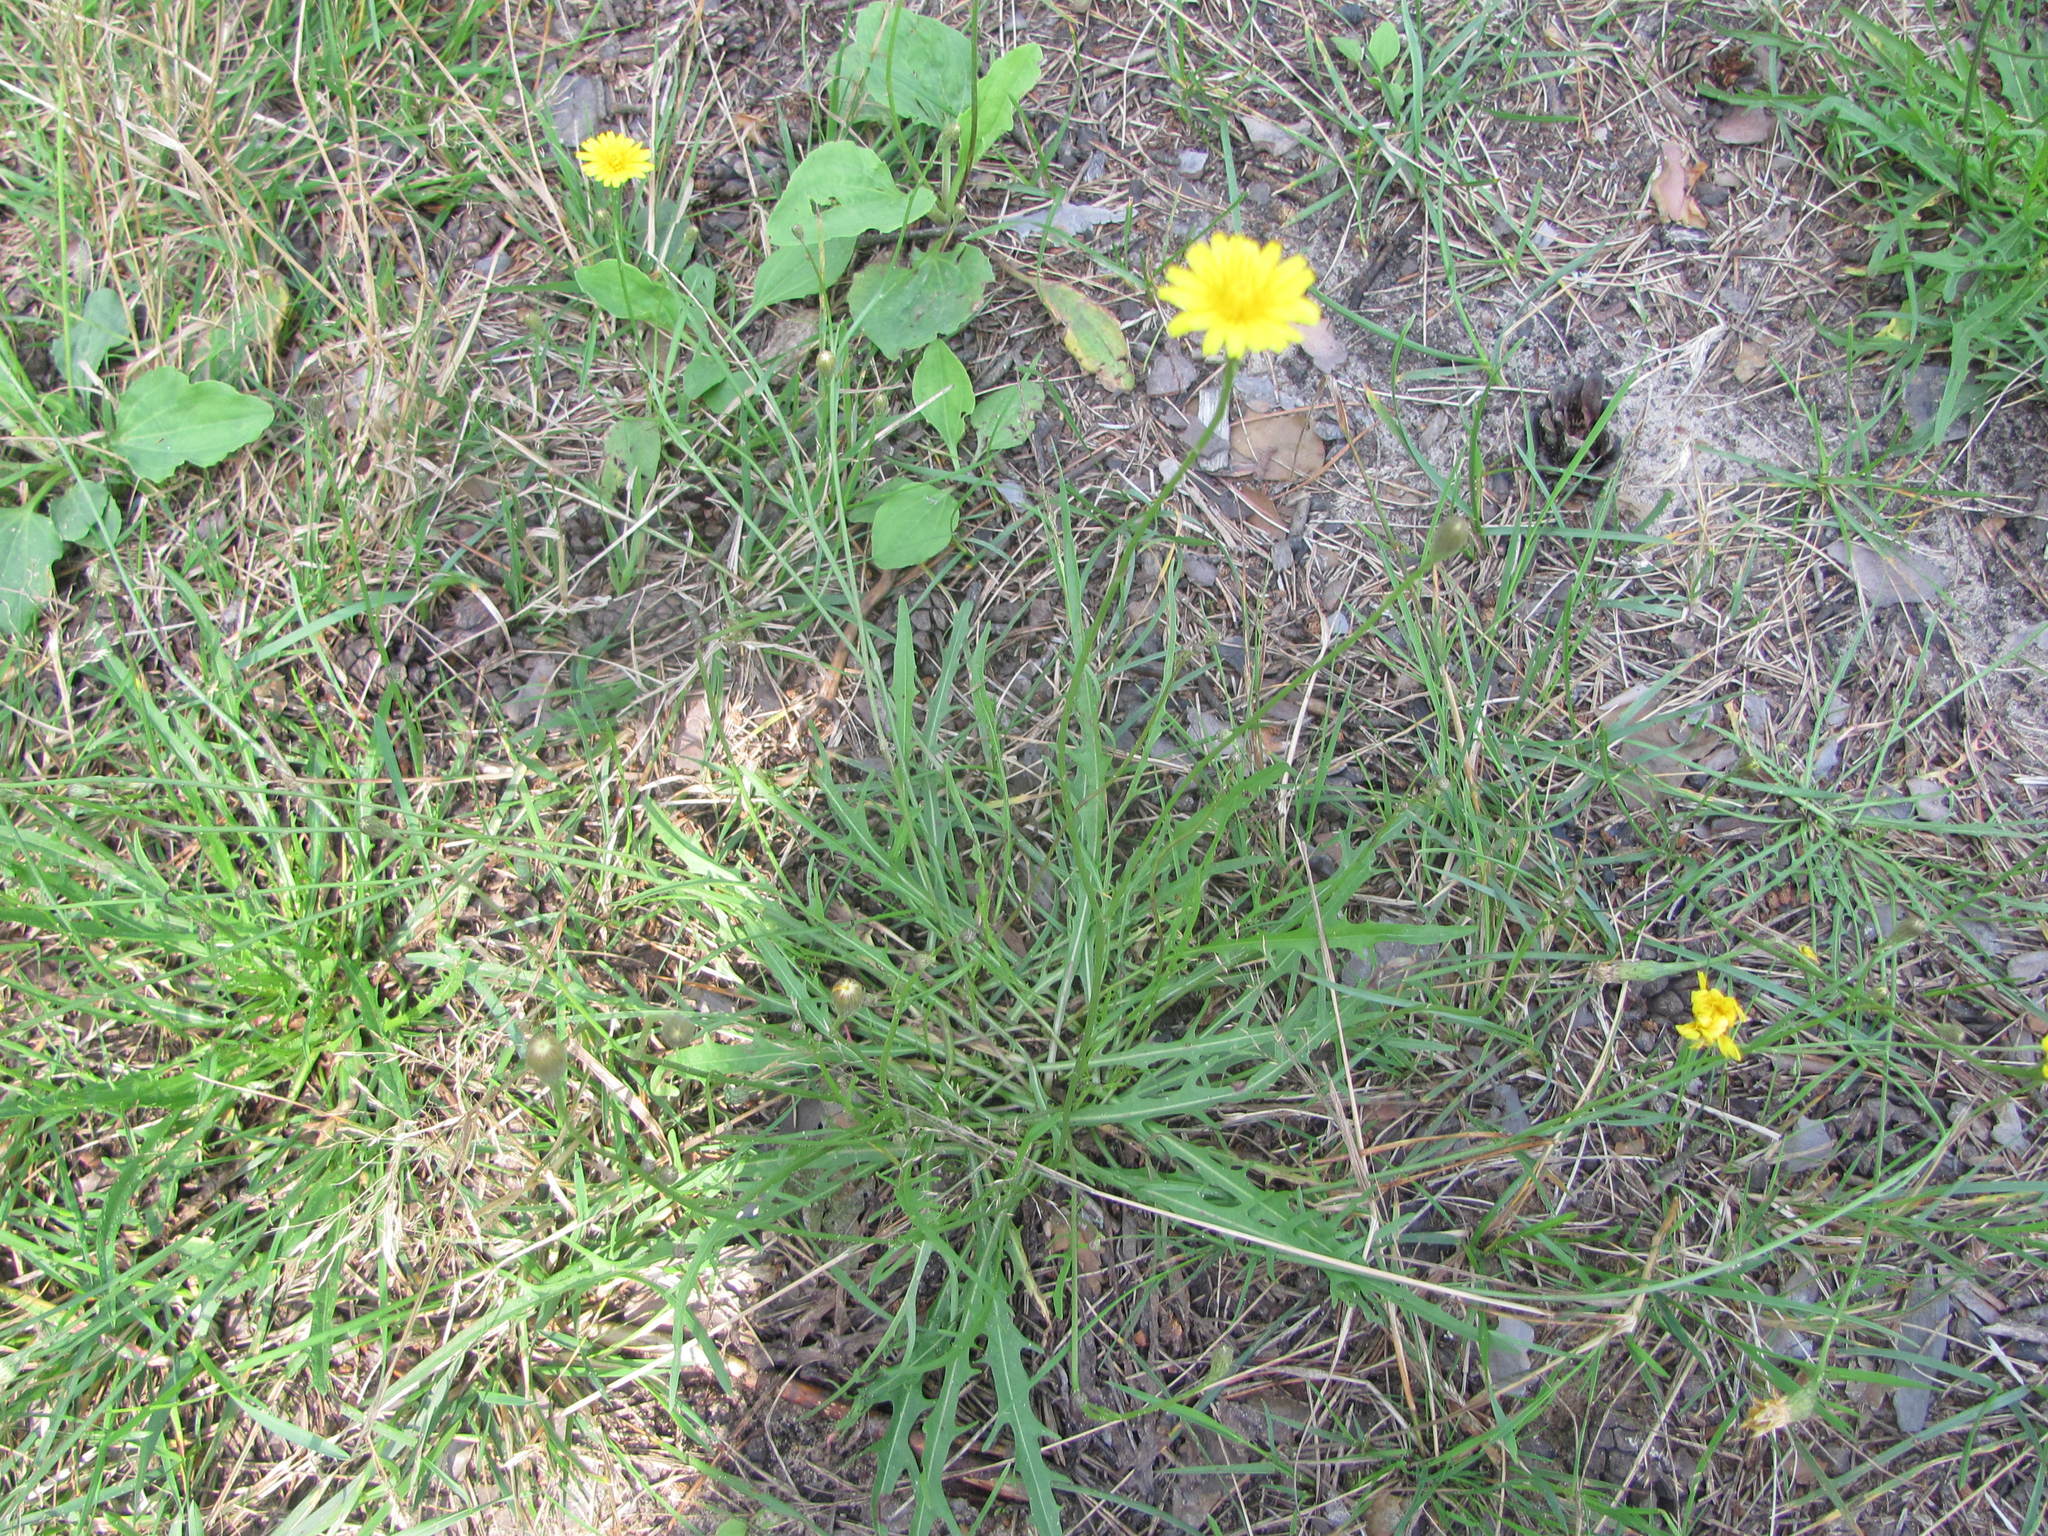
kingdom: Plantae
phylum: Tracheophyta
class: Magnoliopsida
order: Asterales
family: Asteraceae
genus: Scorzoneroides
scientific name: Scorzoneroides autumnalis
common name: Autumn hawkbit
